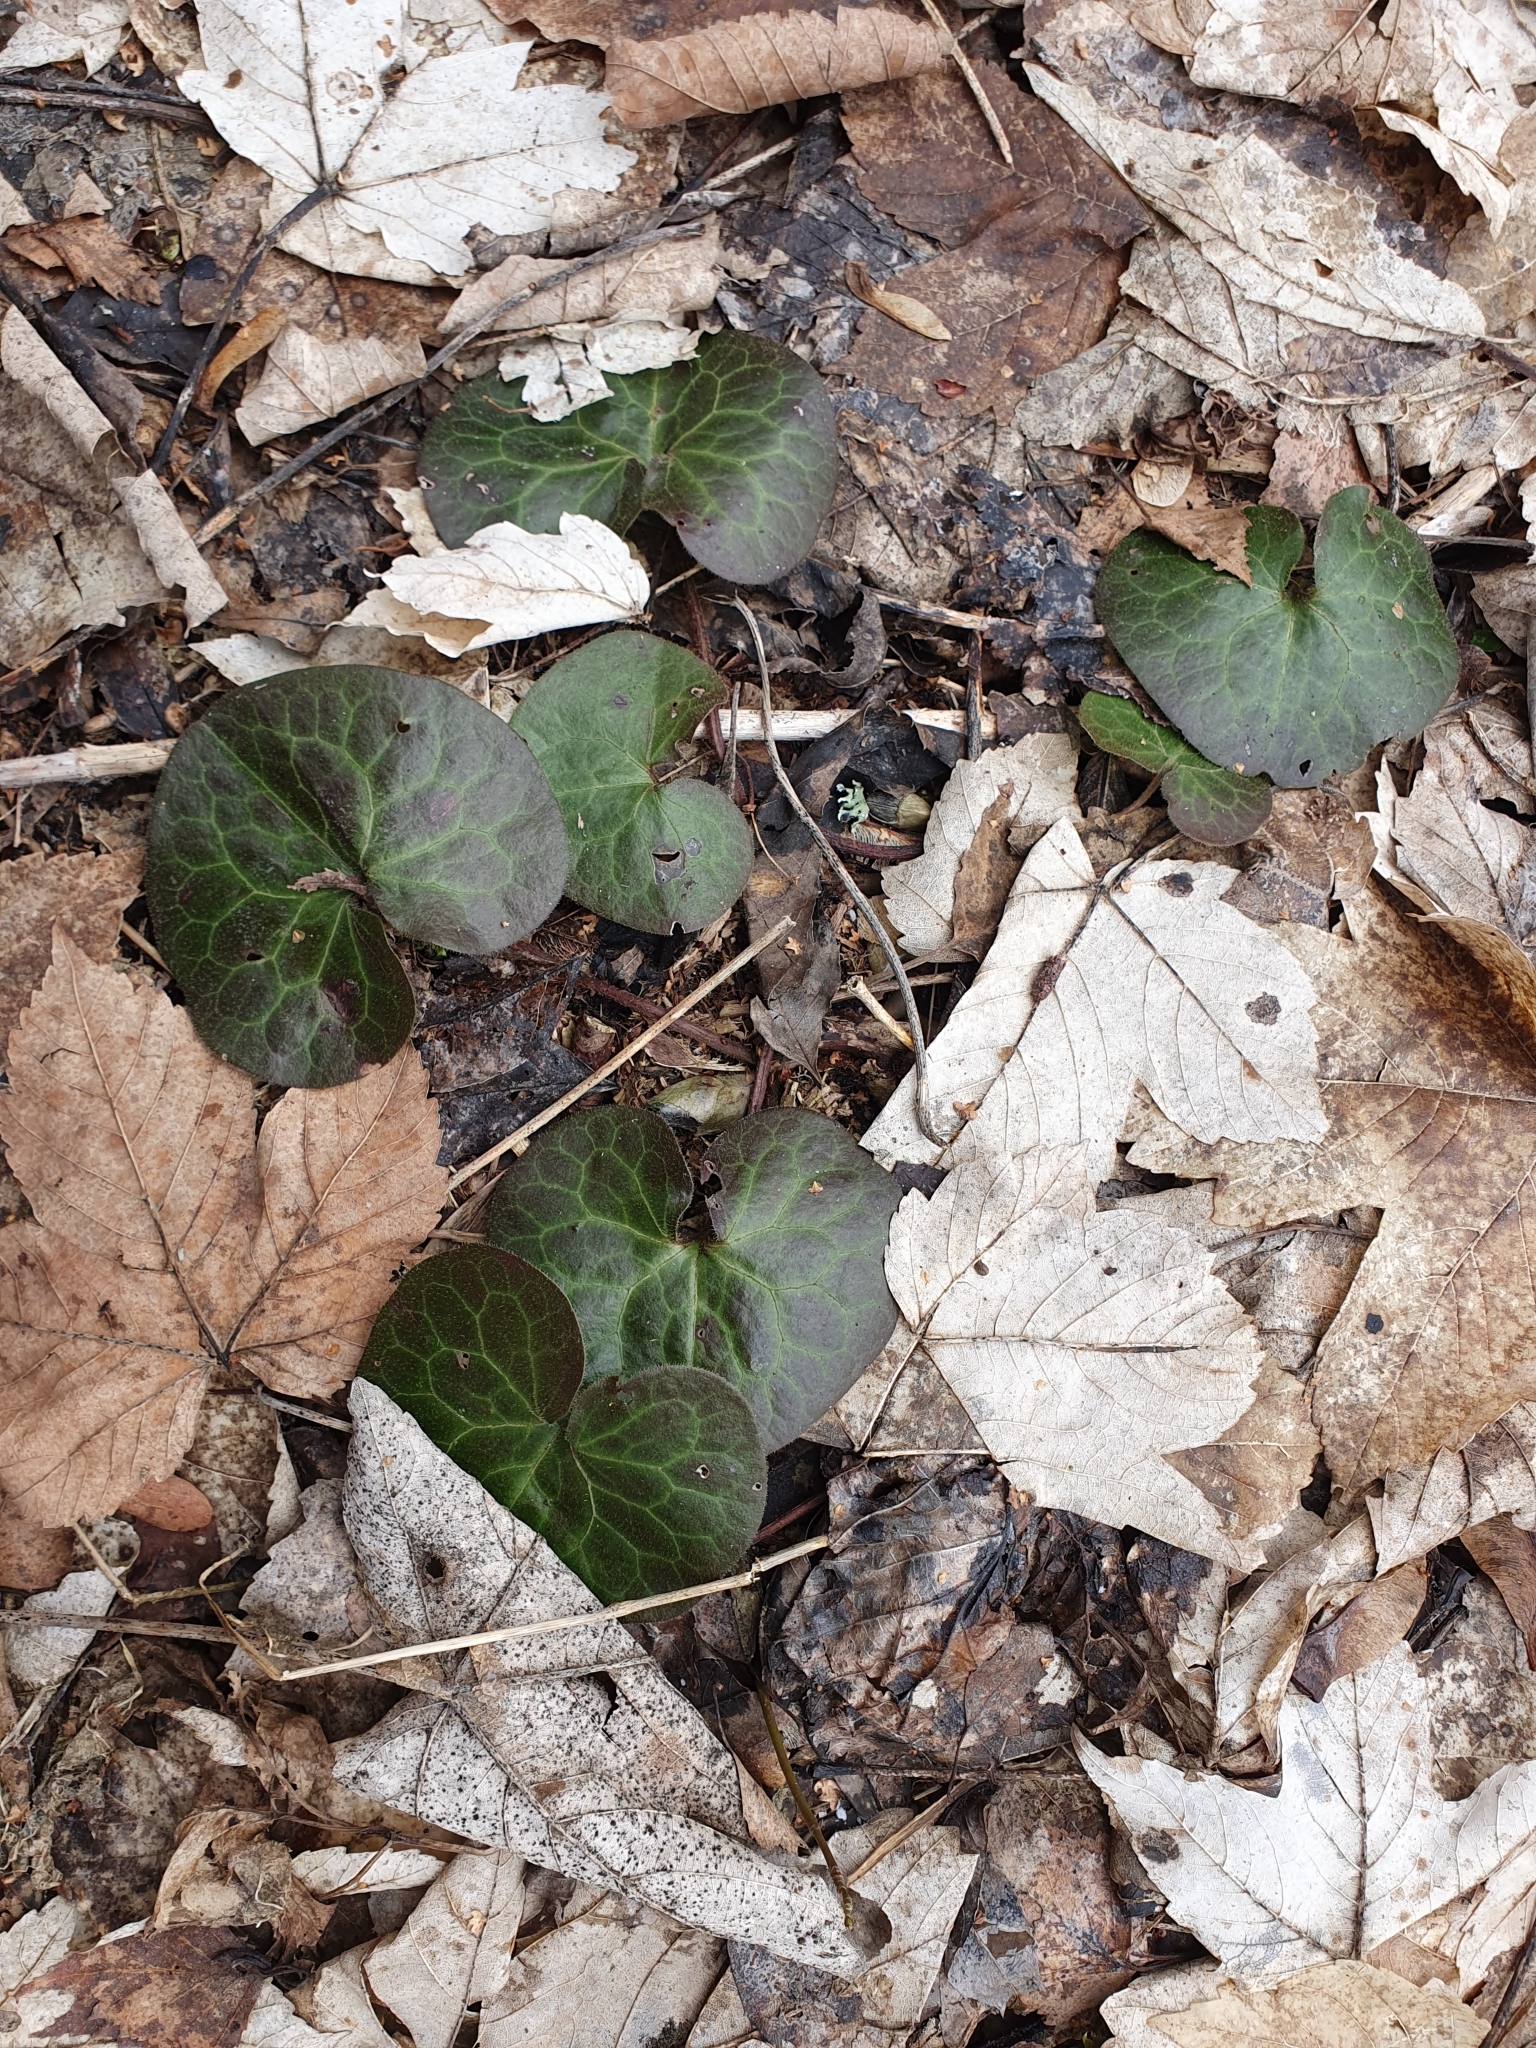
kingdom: Plantae
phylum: Tracheophyta
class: Magnoliopsida
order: Piperales
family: Aristolochiaceae
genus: Asarum
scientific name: Asarum europaeum
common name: Asarabacca
